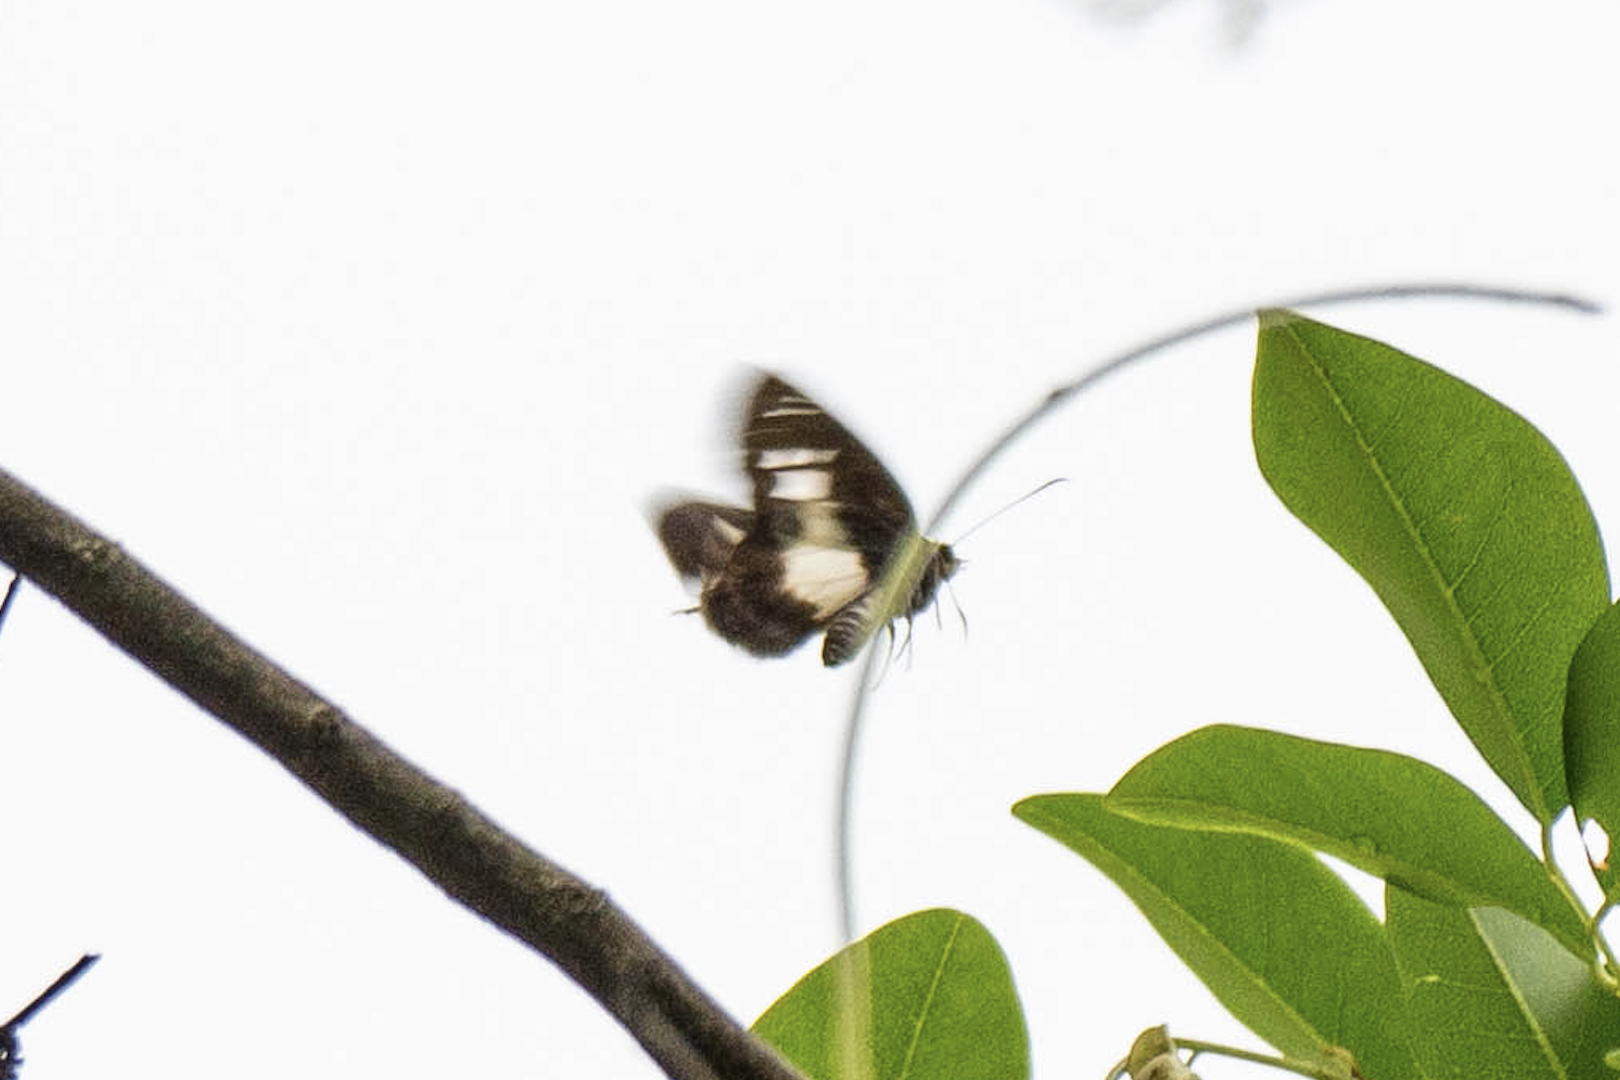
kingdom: Animalia
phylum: Arthropoda
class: Insecta
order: Lepidoptera
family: Hesperiidae
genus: Daimio
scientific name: Daimio Gerosis phisara
